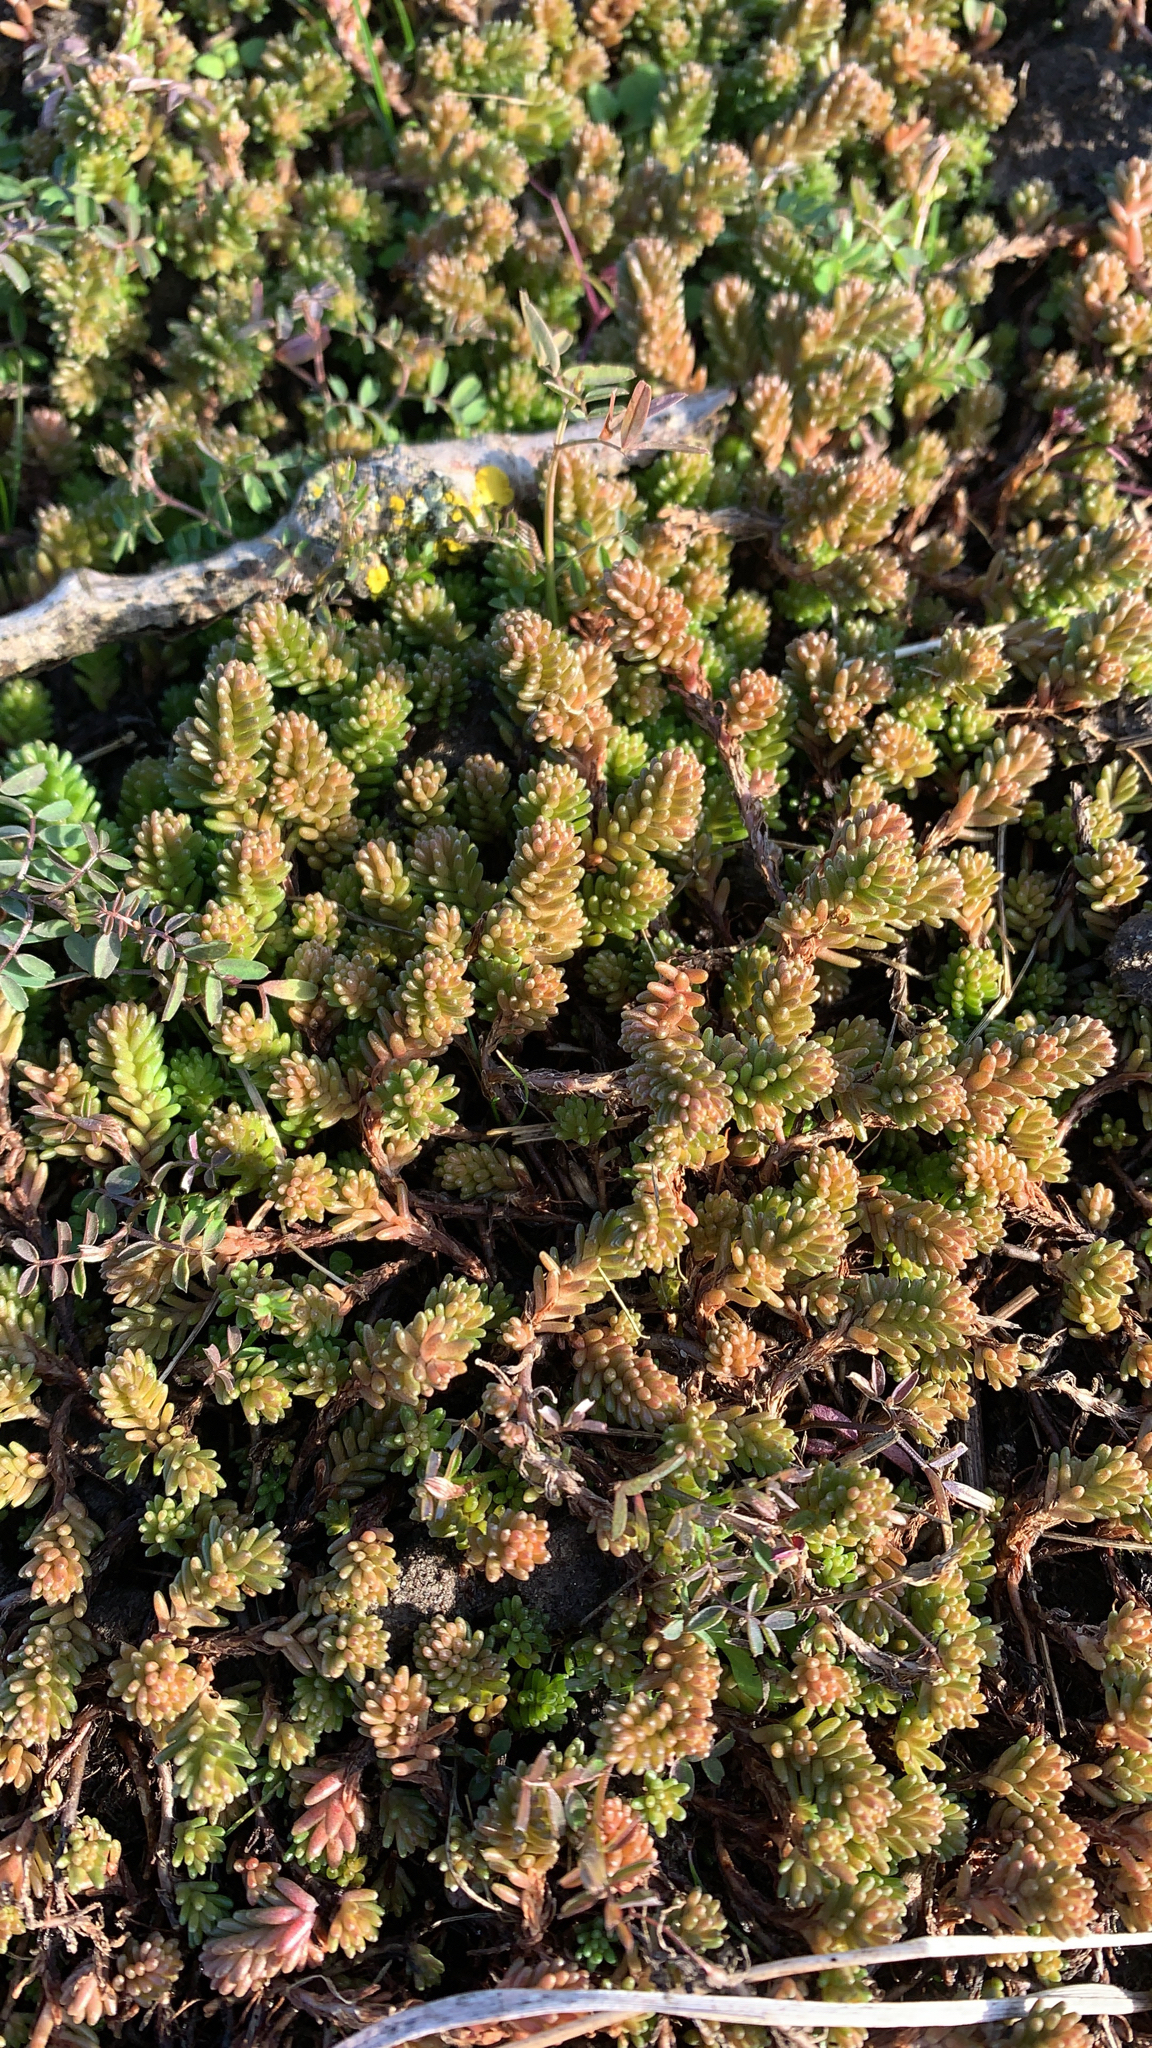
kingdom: Plantae
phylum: Tracheophyta
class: Magnoliopsida
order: Saxifragales
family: Crassulaceae
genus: Sedum
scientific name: Sedum sexangulare
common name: Tasteless stonecrop
